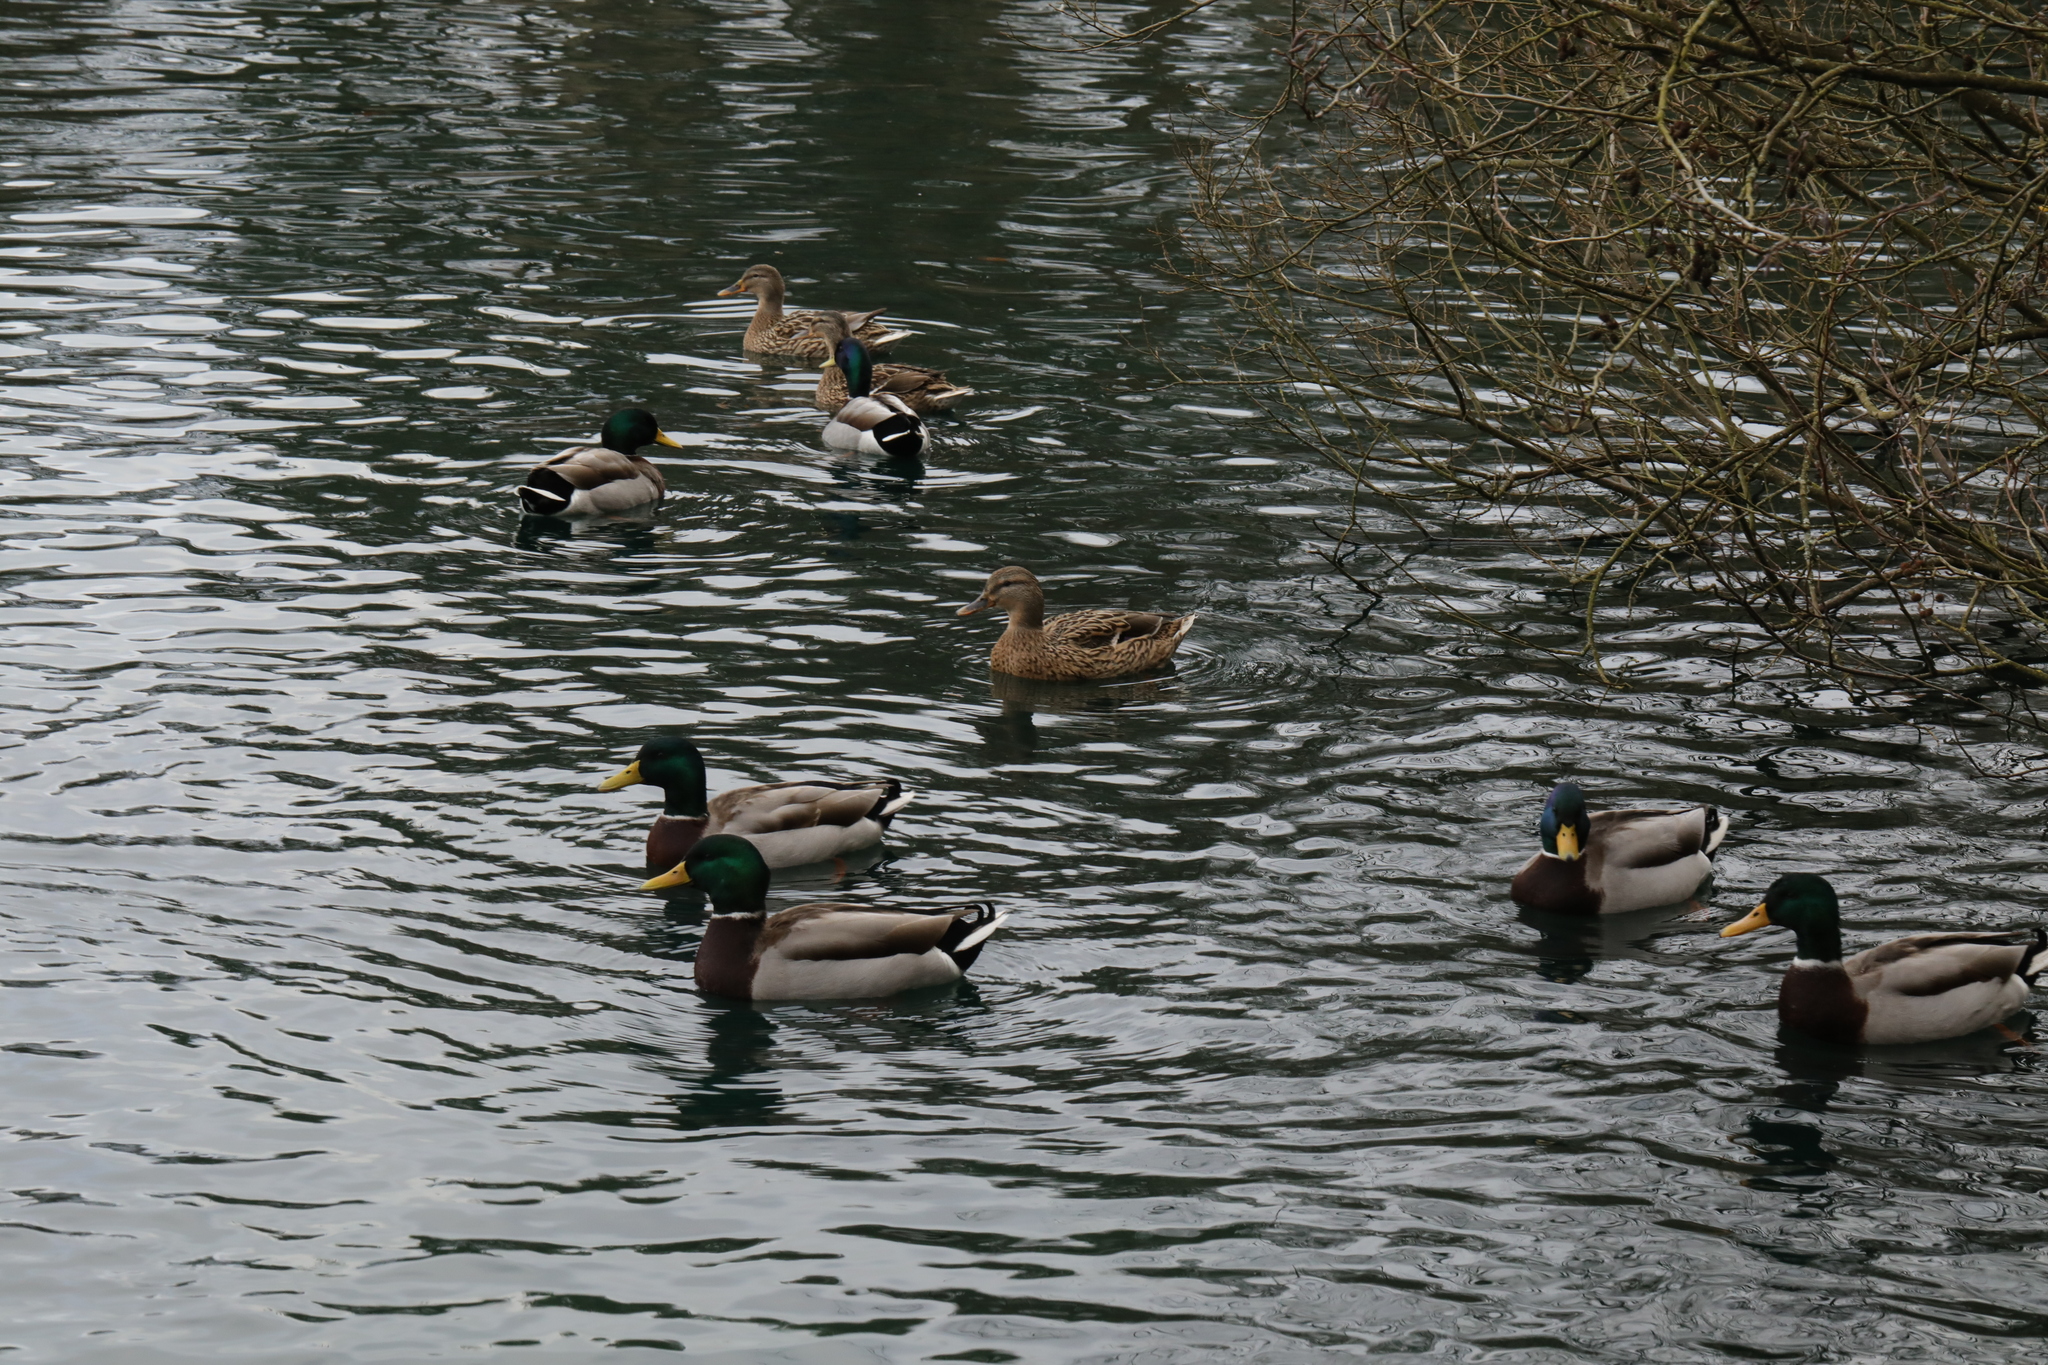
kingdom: Animalia
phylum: Chordata
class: Aves
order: Anseriformes
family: Anatidae
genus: Anas
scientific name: Anas platyrhynchos
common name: Mallard
